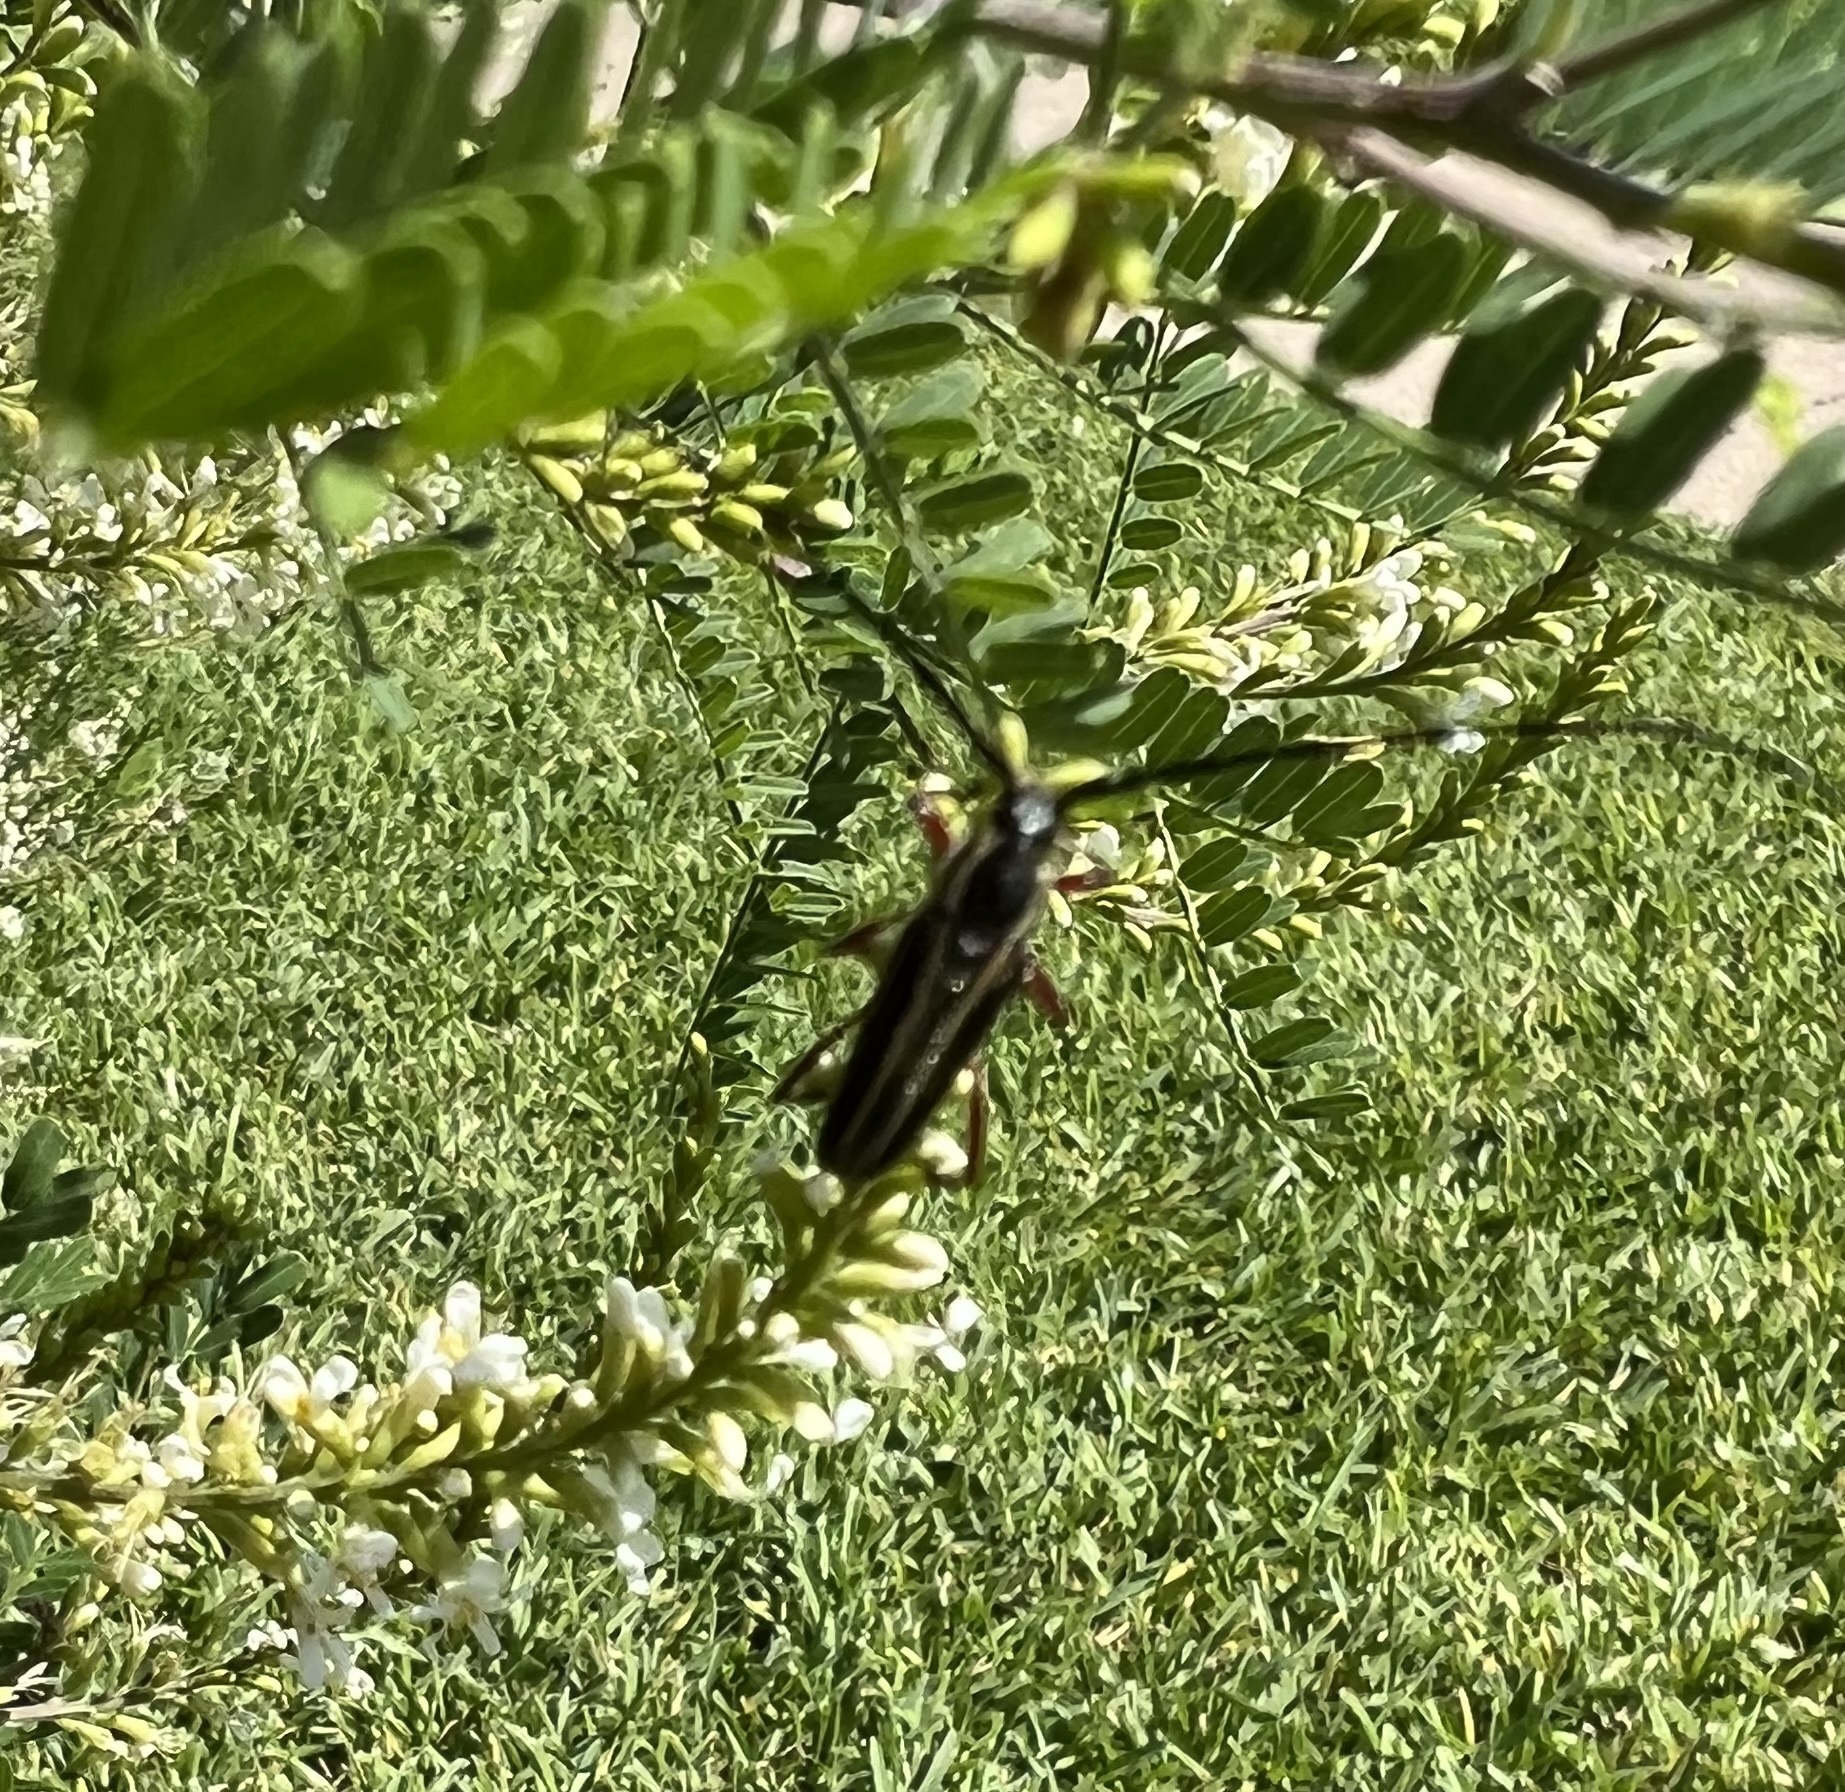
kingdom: Animalia
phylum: Arthropoda
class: Insecta
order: Coleoptera
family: Cerambycidae
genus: Sphaenothecus
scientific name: Sphaenothecus bilineatus
